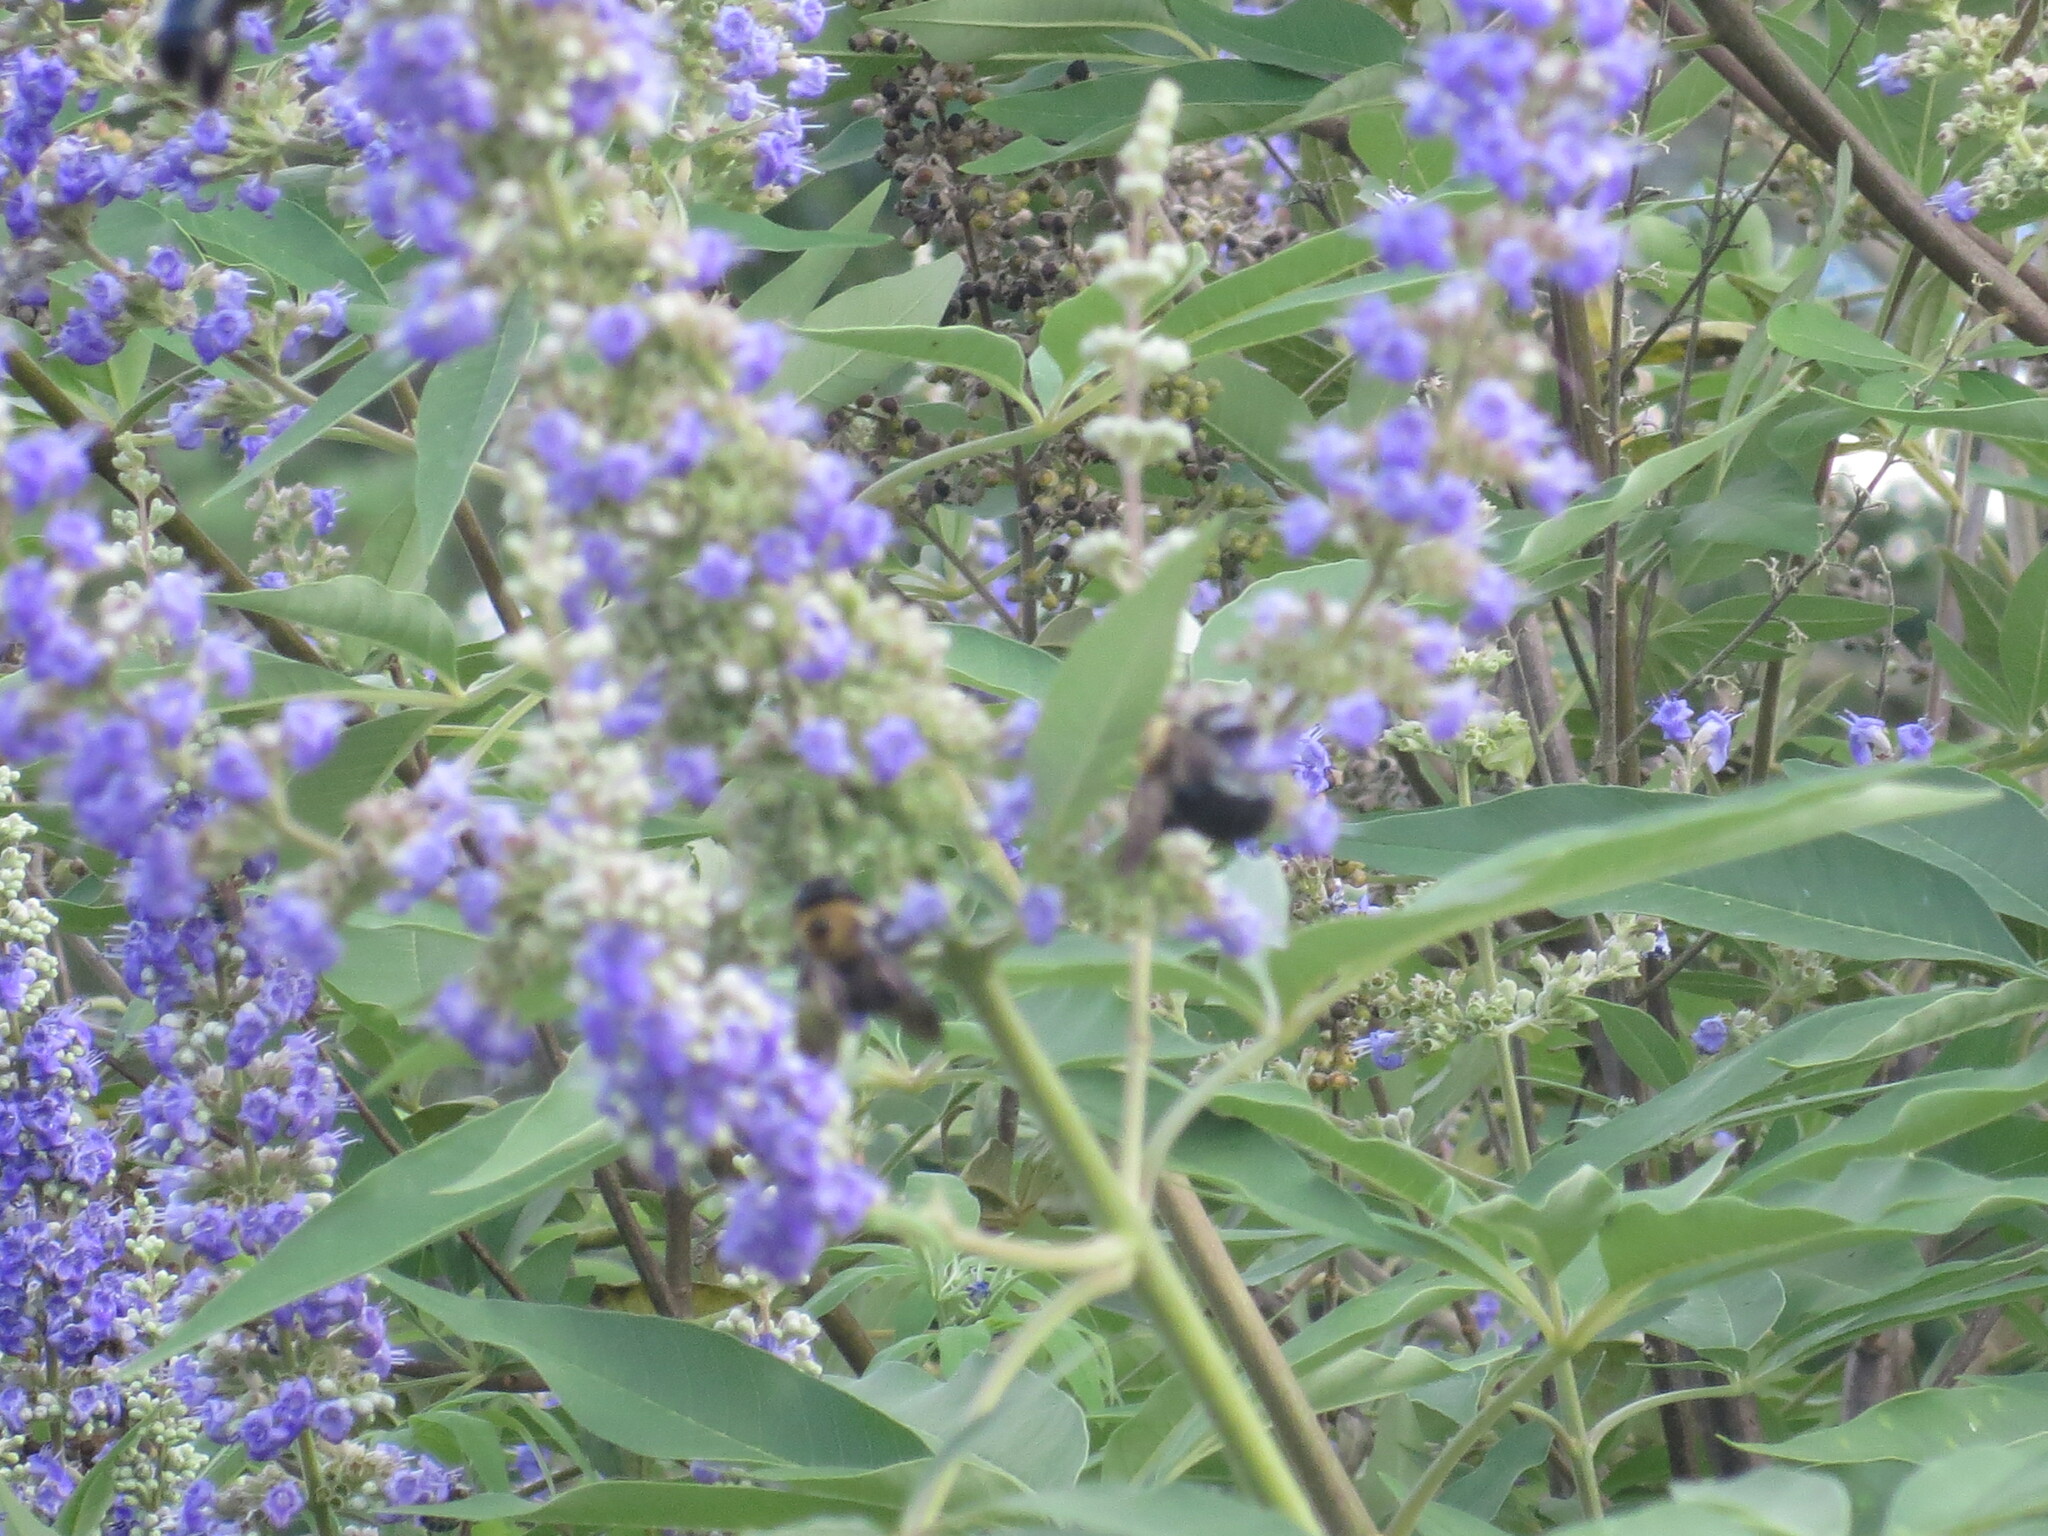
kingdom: Animalia
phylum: Arthropoda
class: Insecta
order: Hymenoptera
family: Apidae
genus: Xylocopa
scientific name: Xylocopa virginica
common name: Carpenter bee
